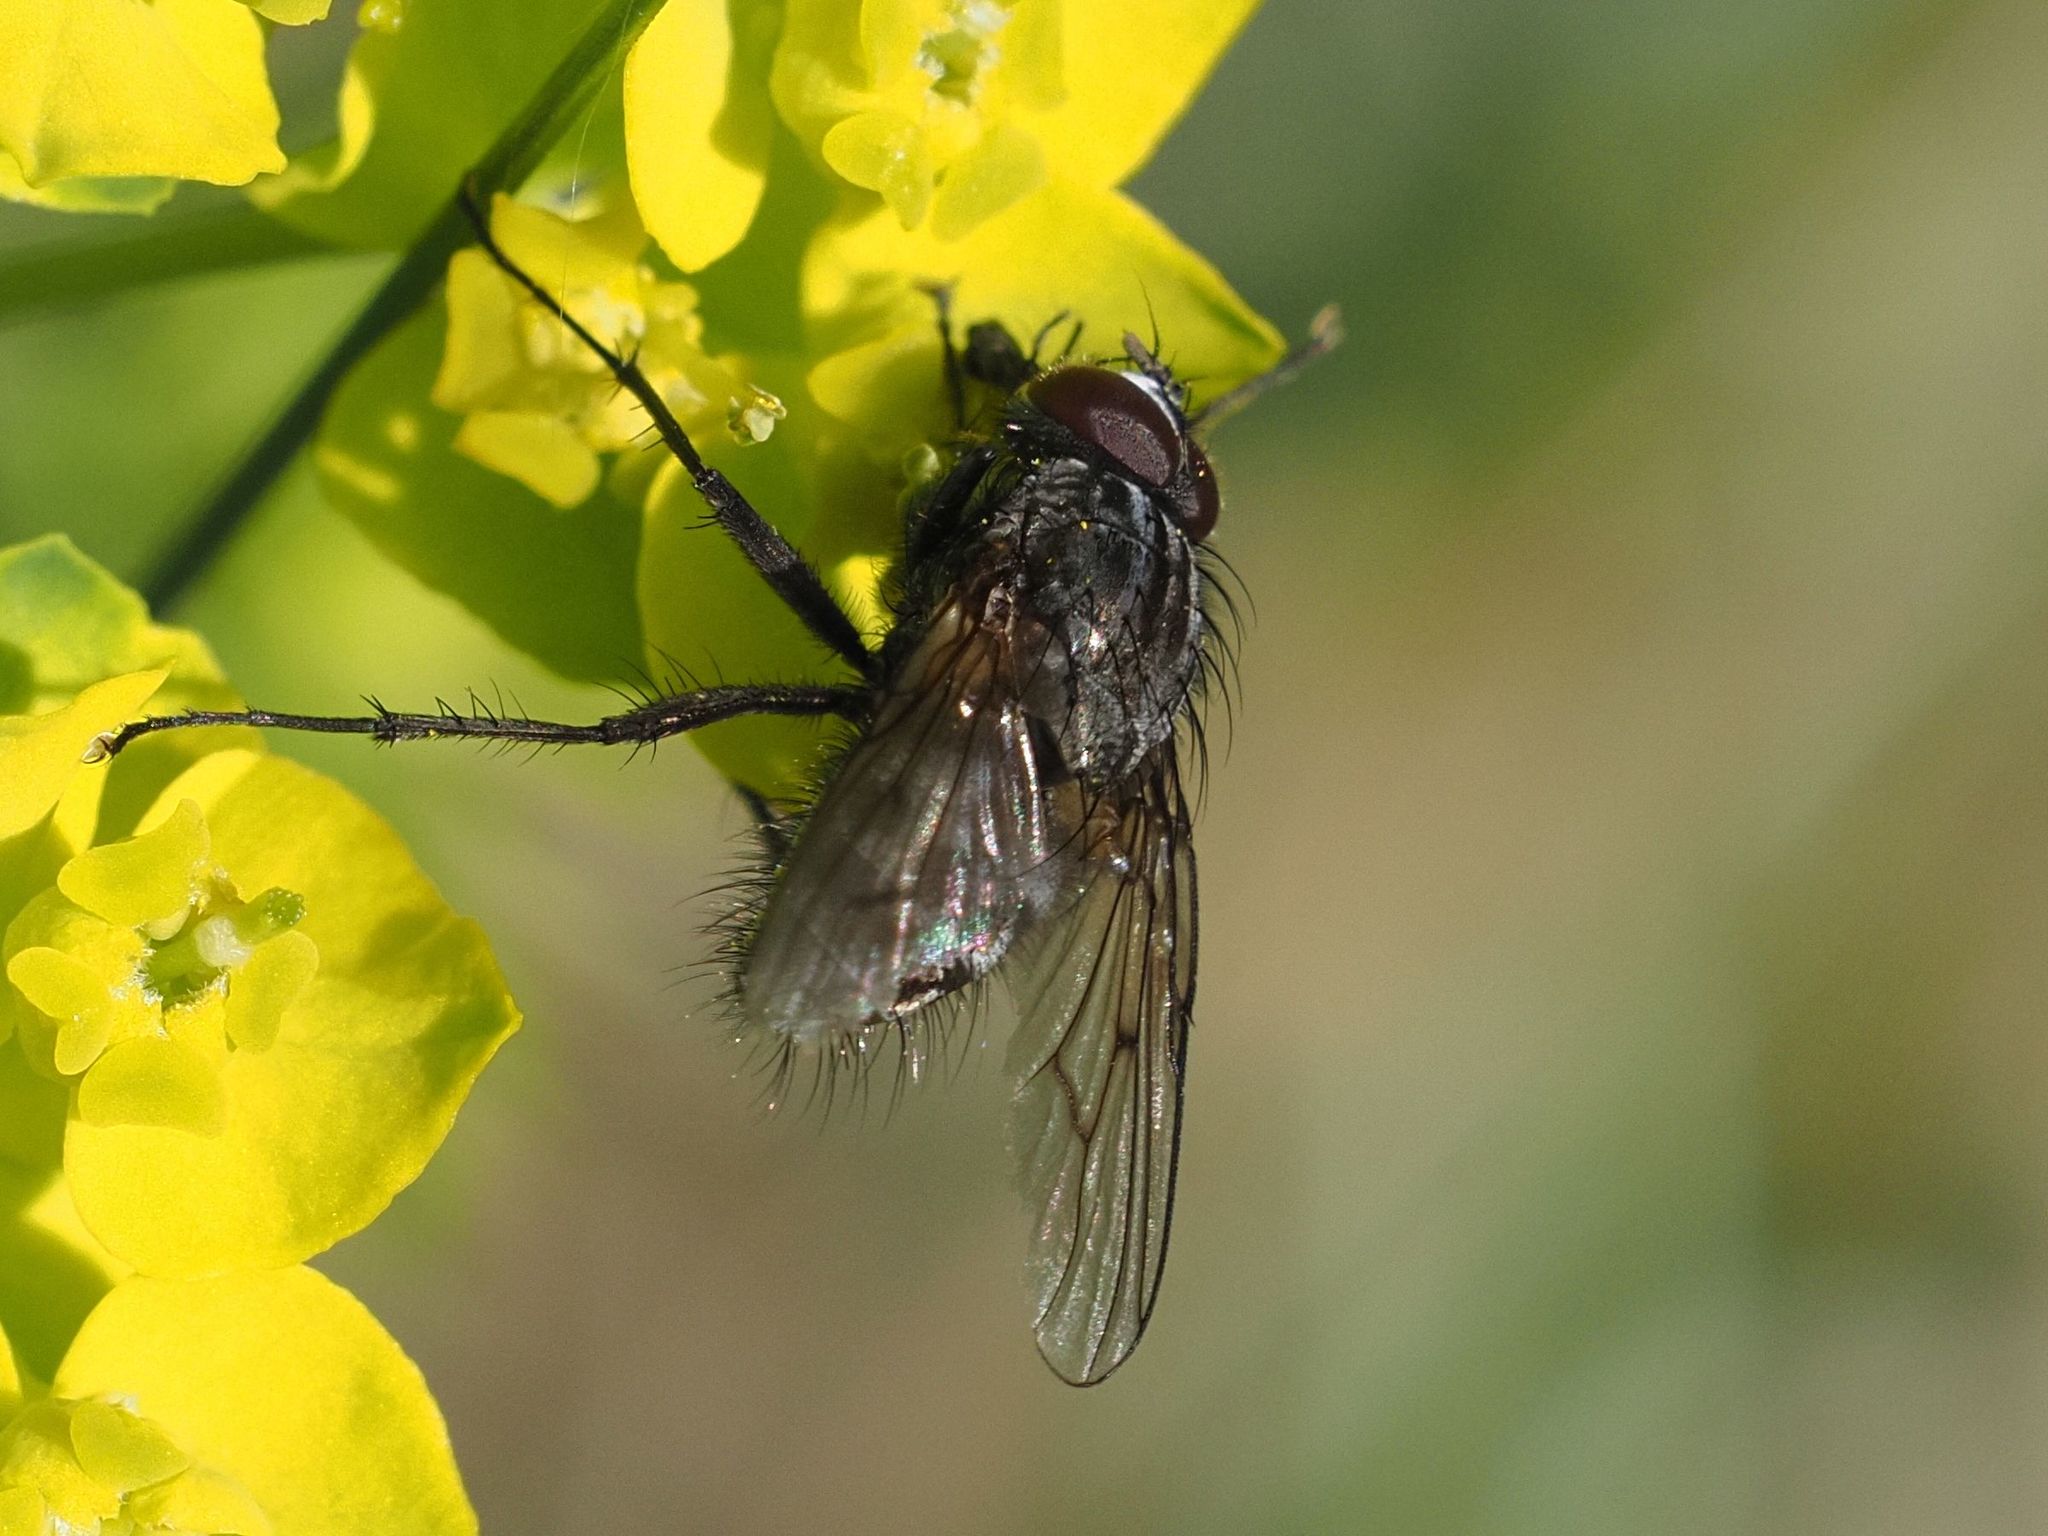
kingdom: Animalia
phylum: Arthropoda
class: Insecta
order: Diptera
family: Muscidae
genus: Helina
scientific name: Helina evecta
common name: Muscid fly
